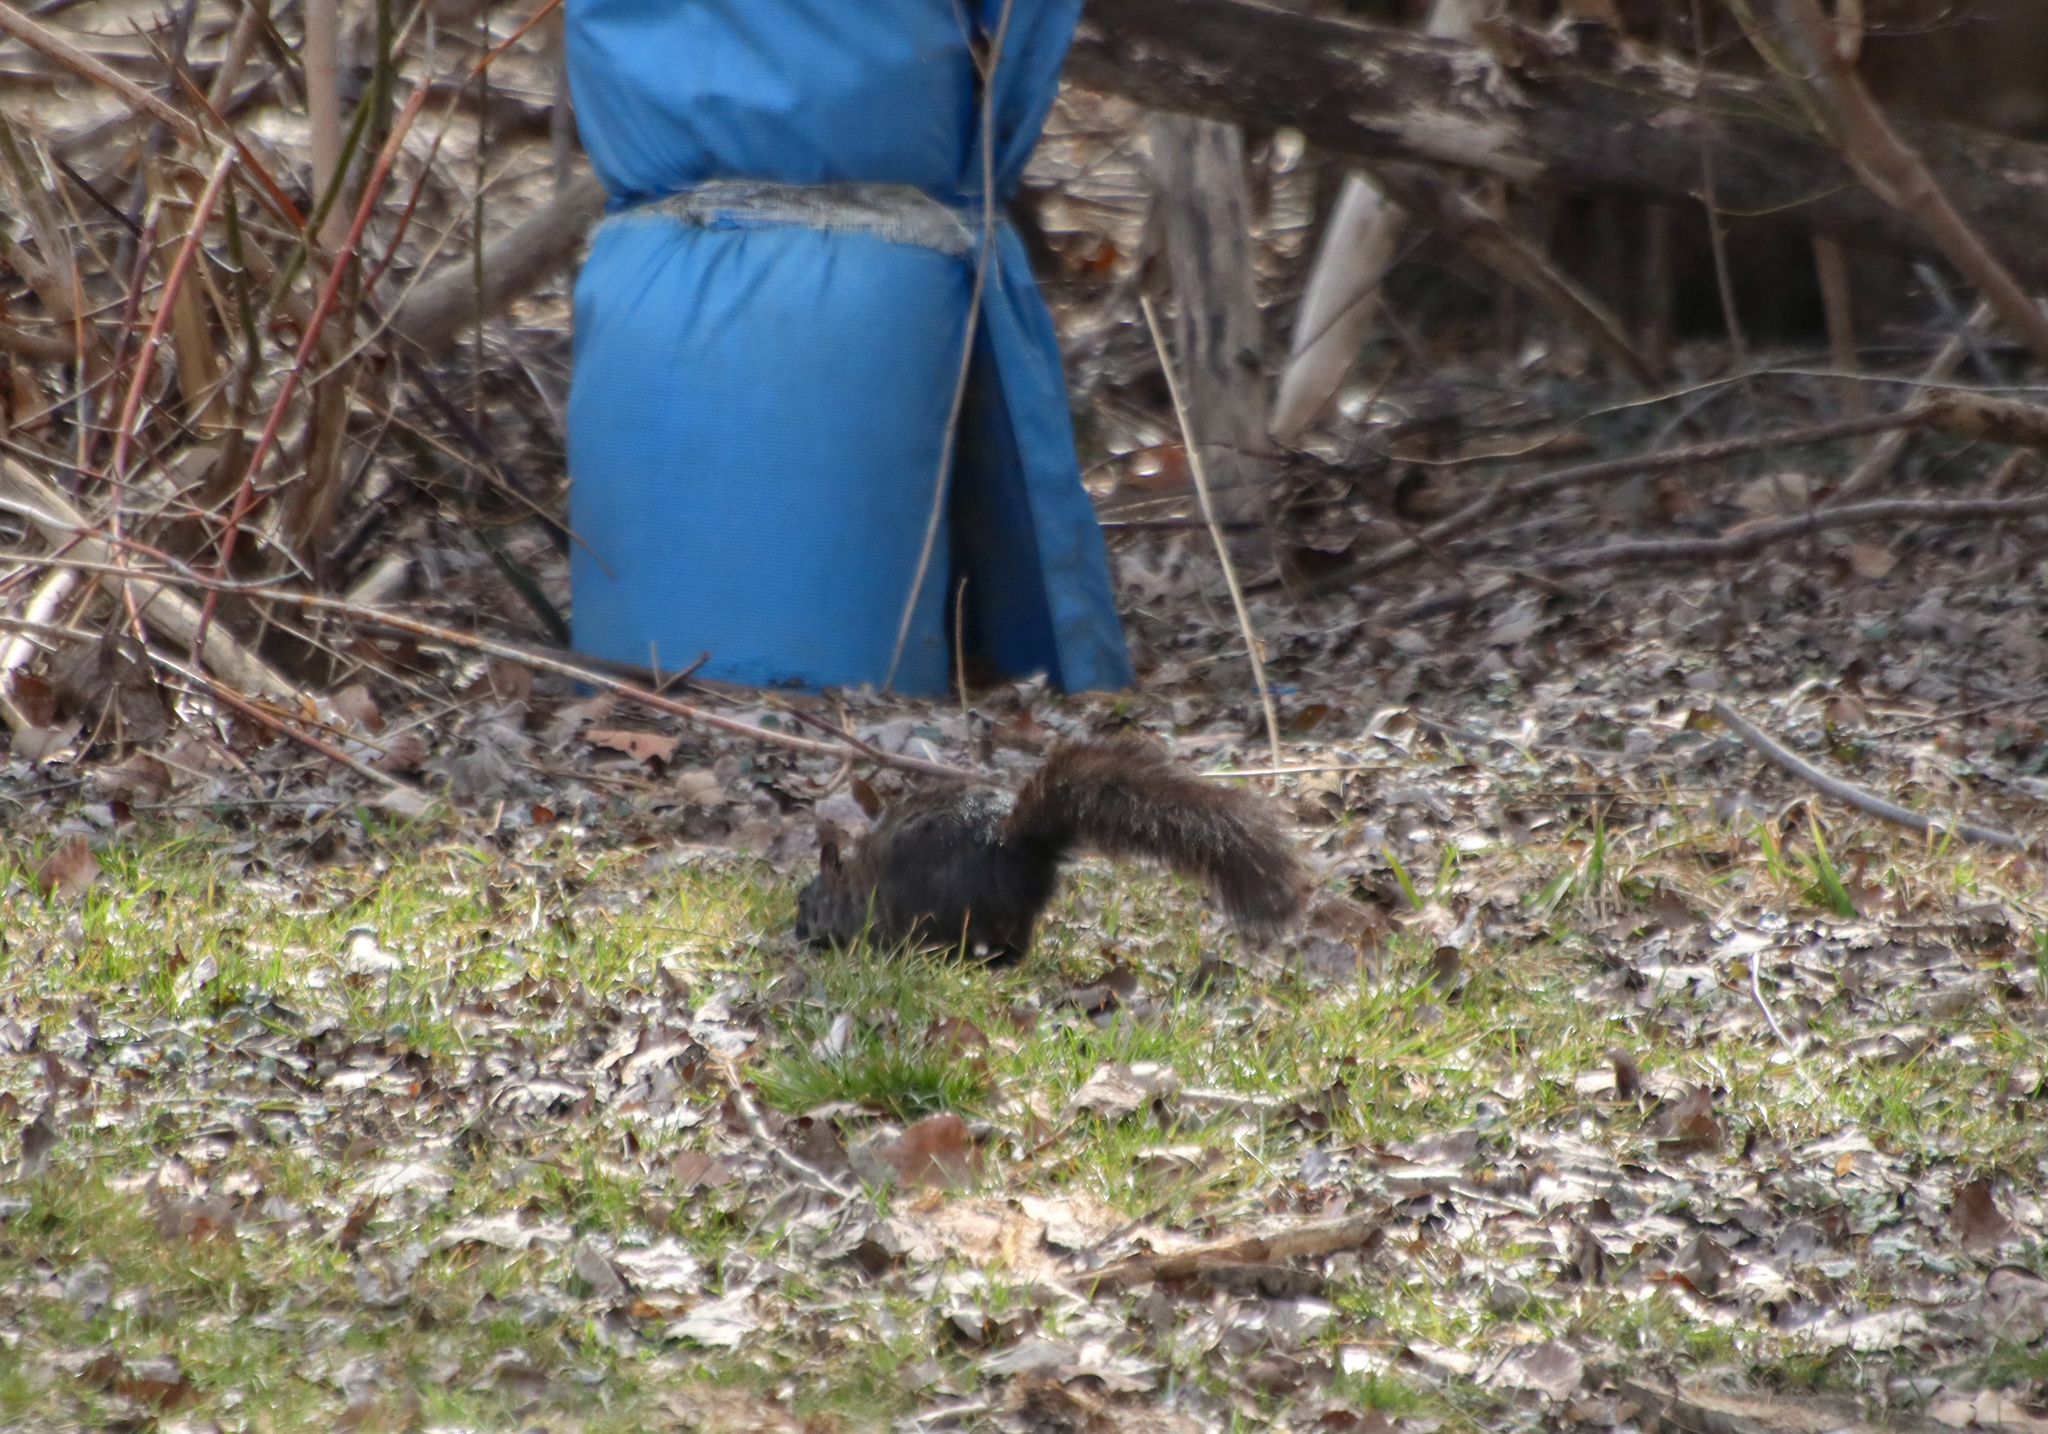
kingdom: Animalia
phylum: Chordata
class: Mammalia
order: Rodentia
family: Sciuridae
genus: Sciurus
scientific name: Sciurus carolinensis
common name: Eastern gray squirrel
